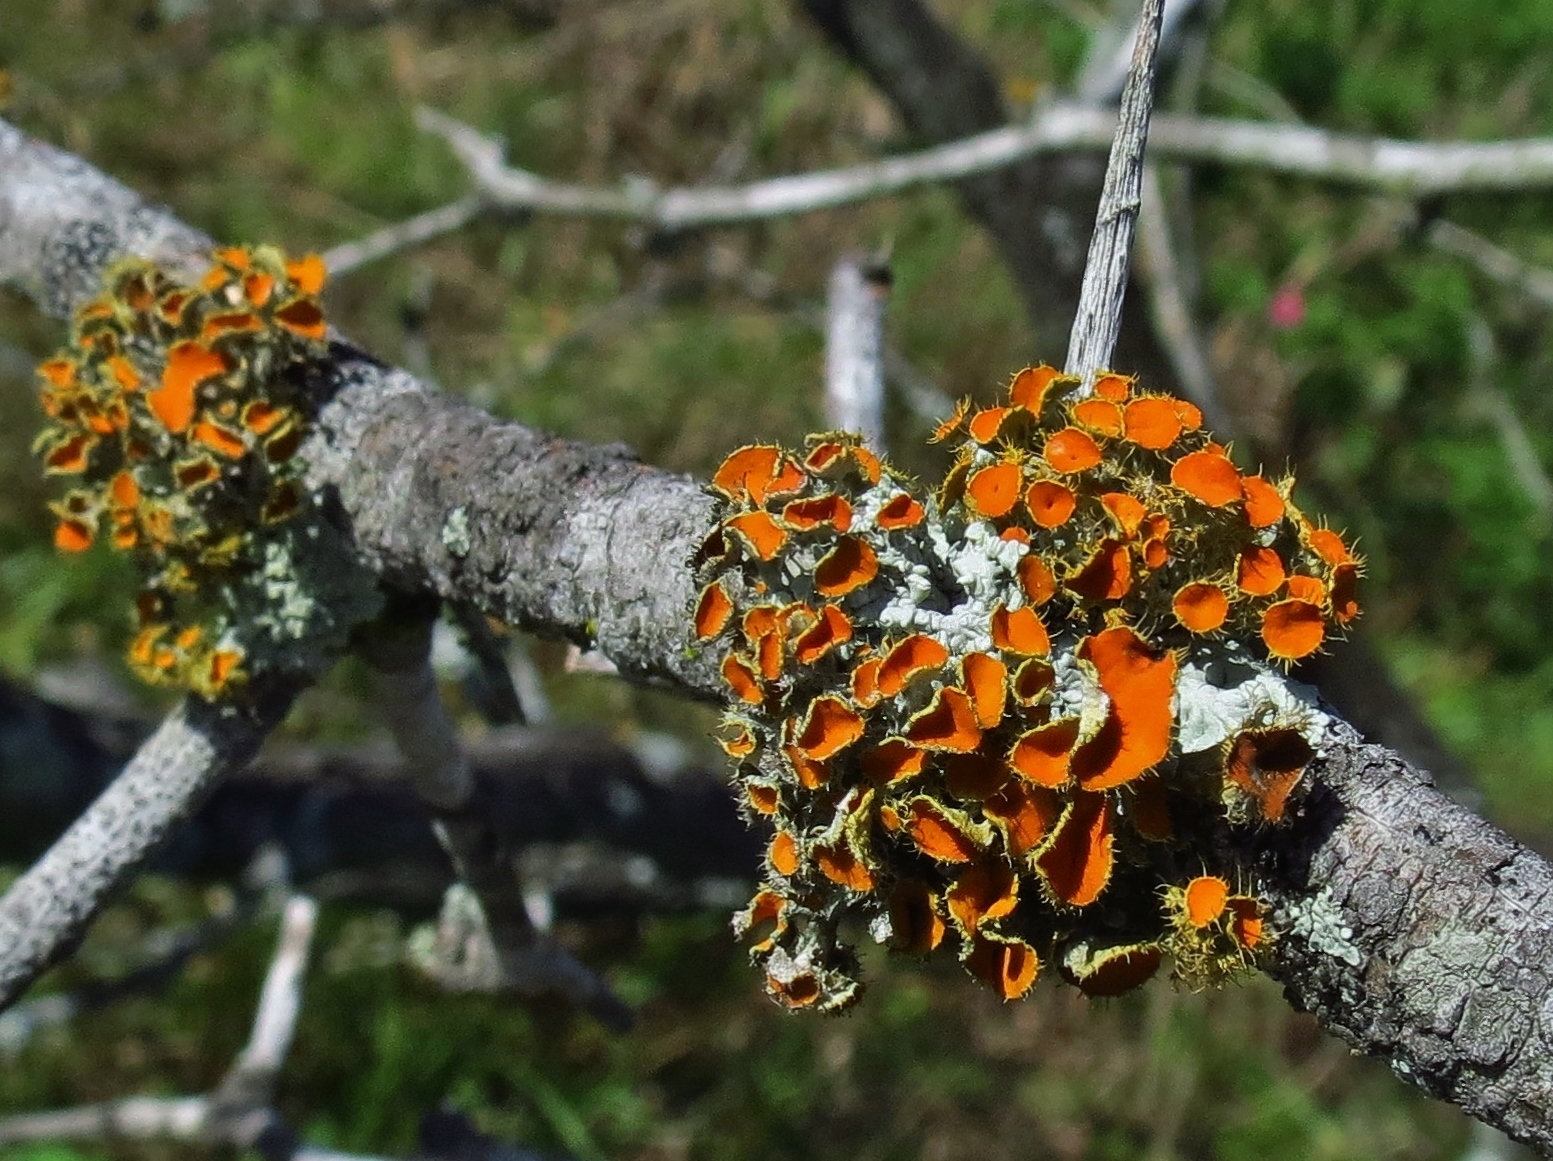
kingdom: Fungi
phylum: Ascomycota
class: Lecanoromycetes
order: Teloschistales
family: Teloschistaceae
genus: Niorma
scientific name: Niorma chrysophthalma
